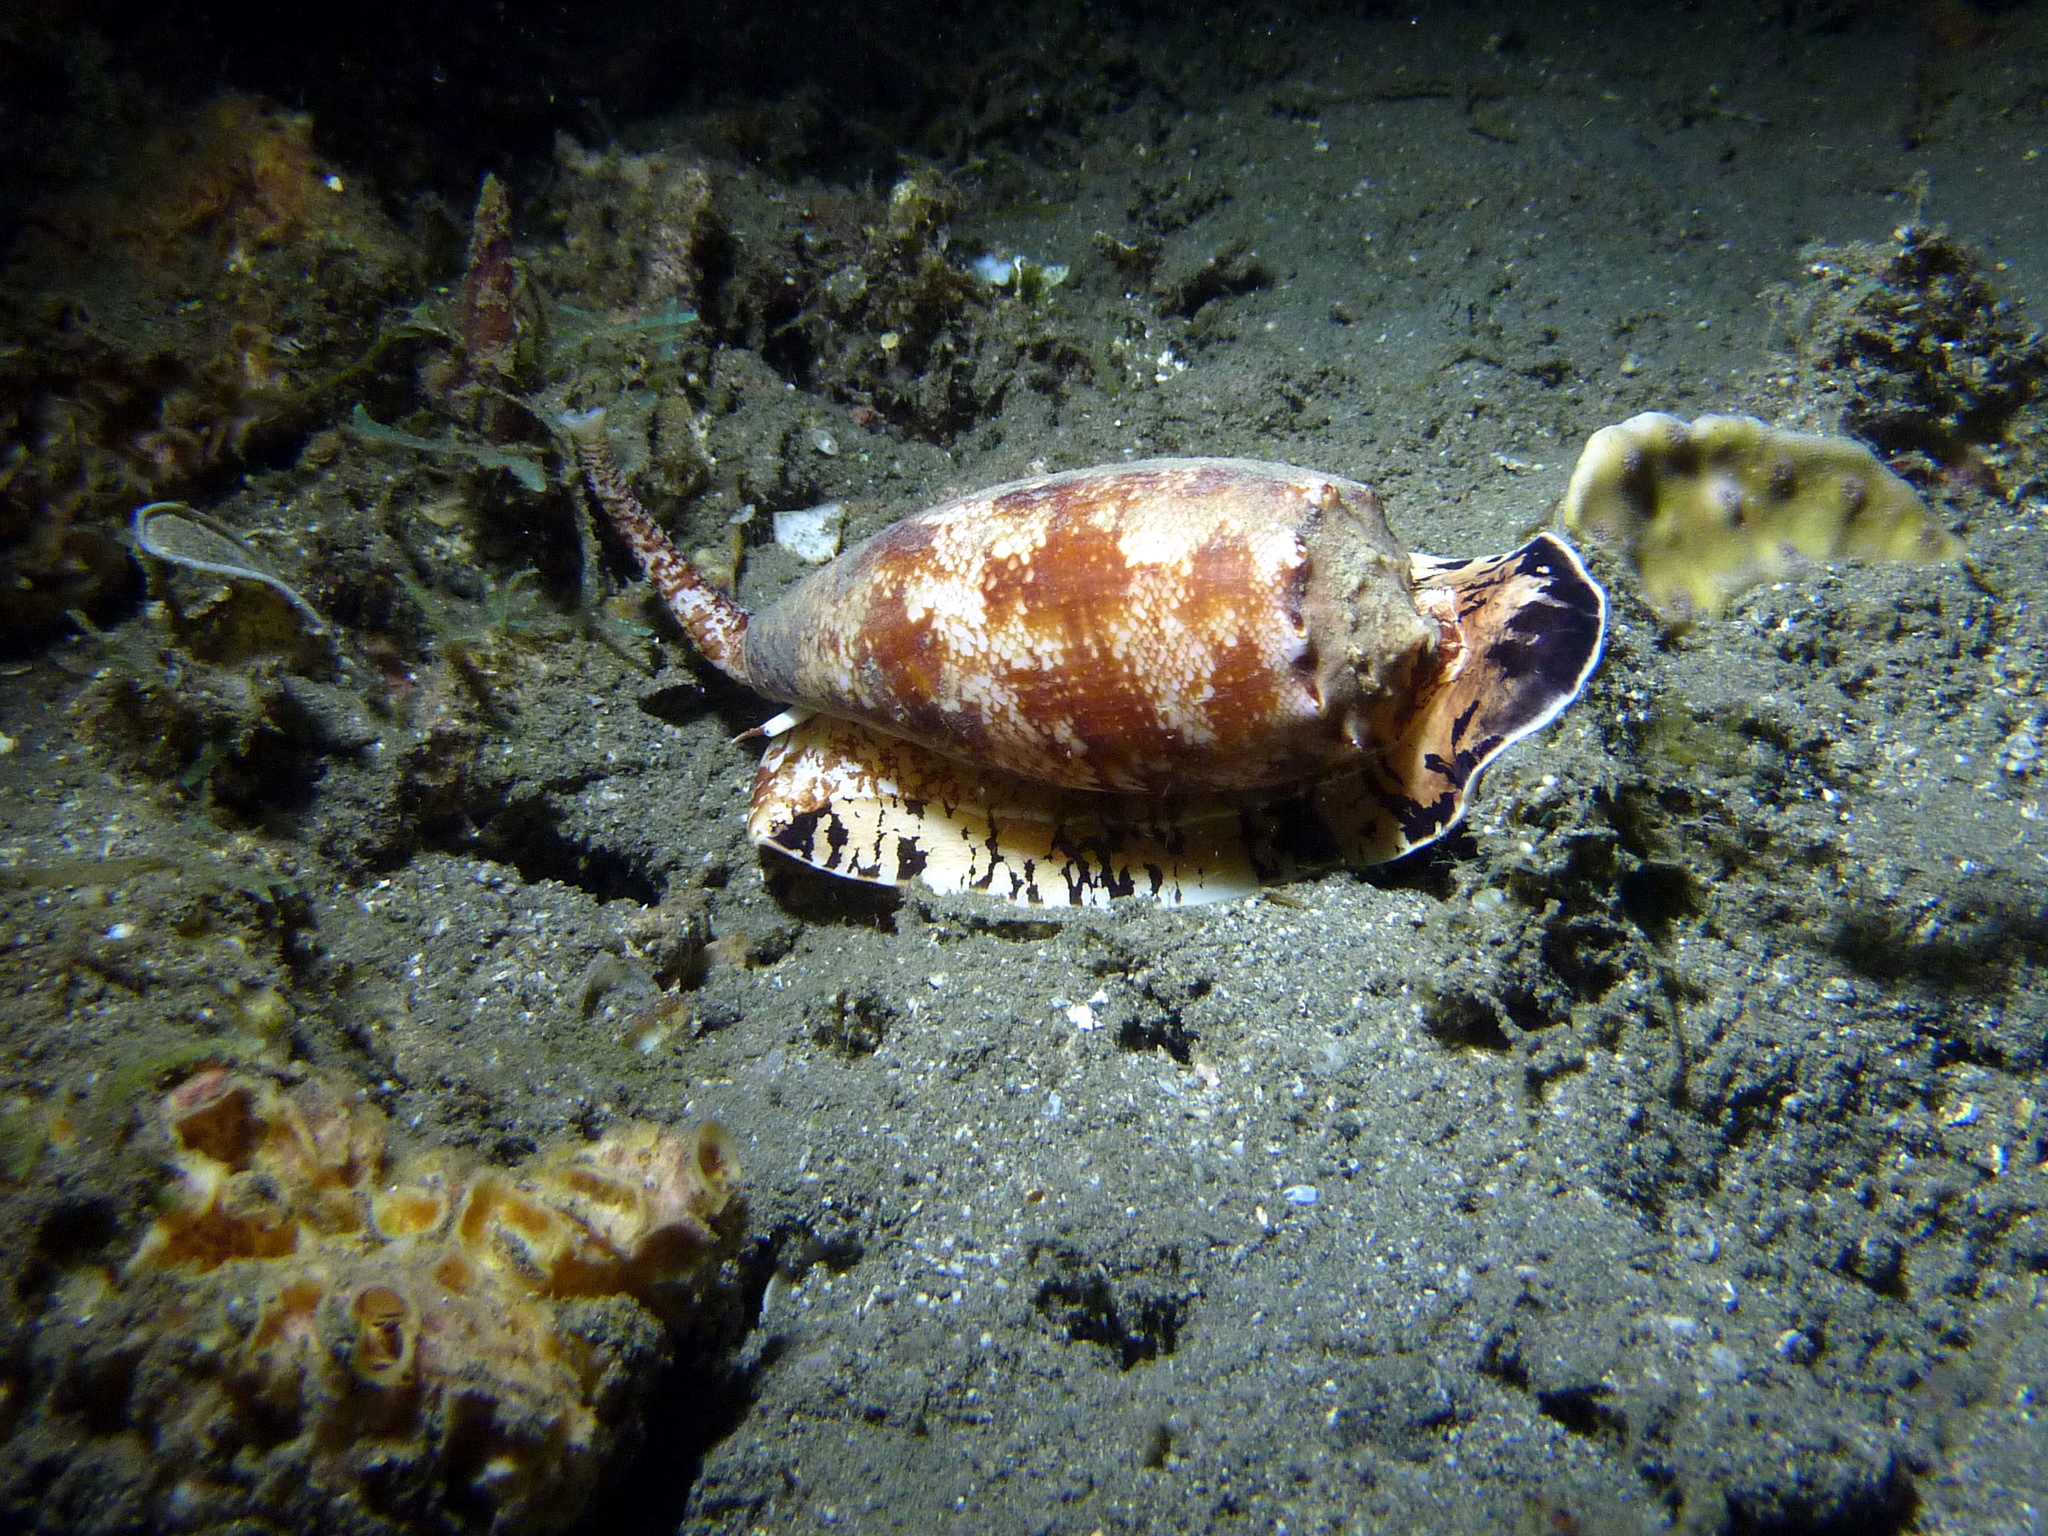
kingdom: Animalia
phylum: Mollusca
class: Gastropoda
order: Neogastropoda
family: Conidae
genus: Conus
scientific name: Conus geographus
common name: Geographer cone
